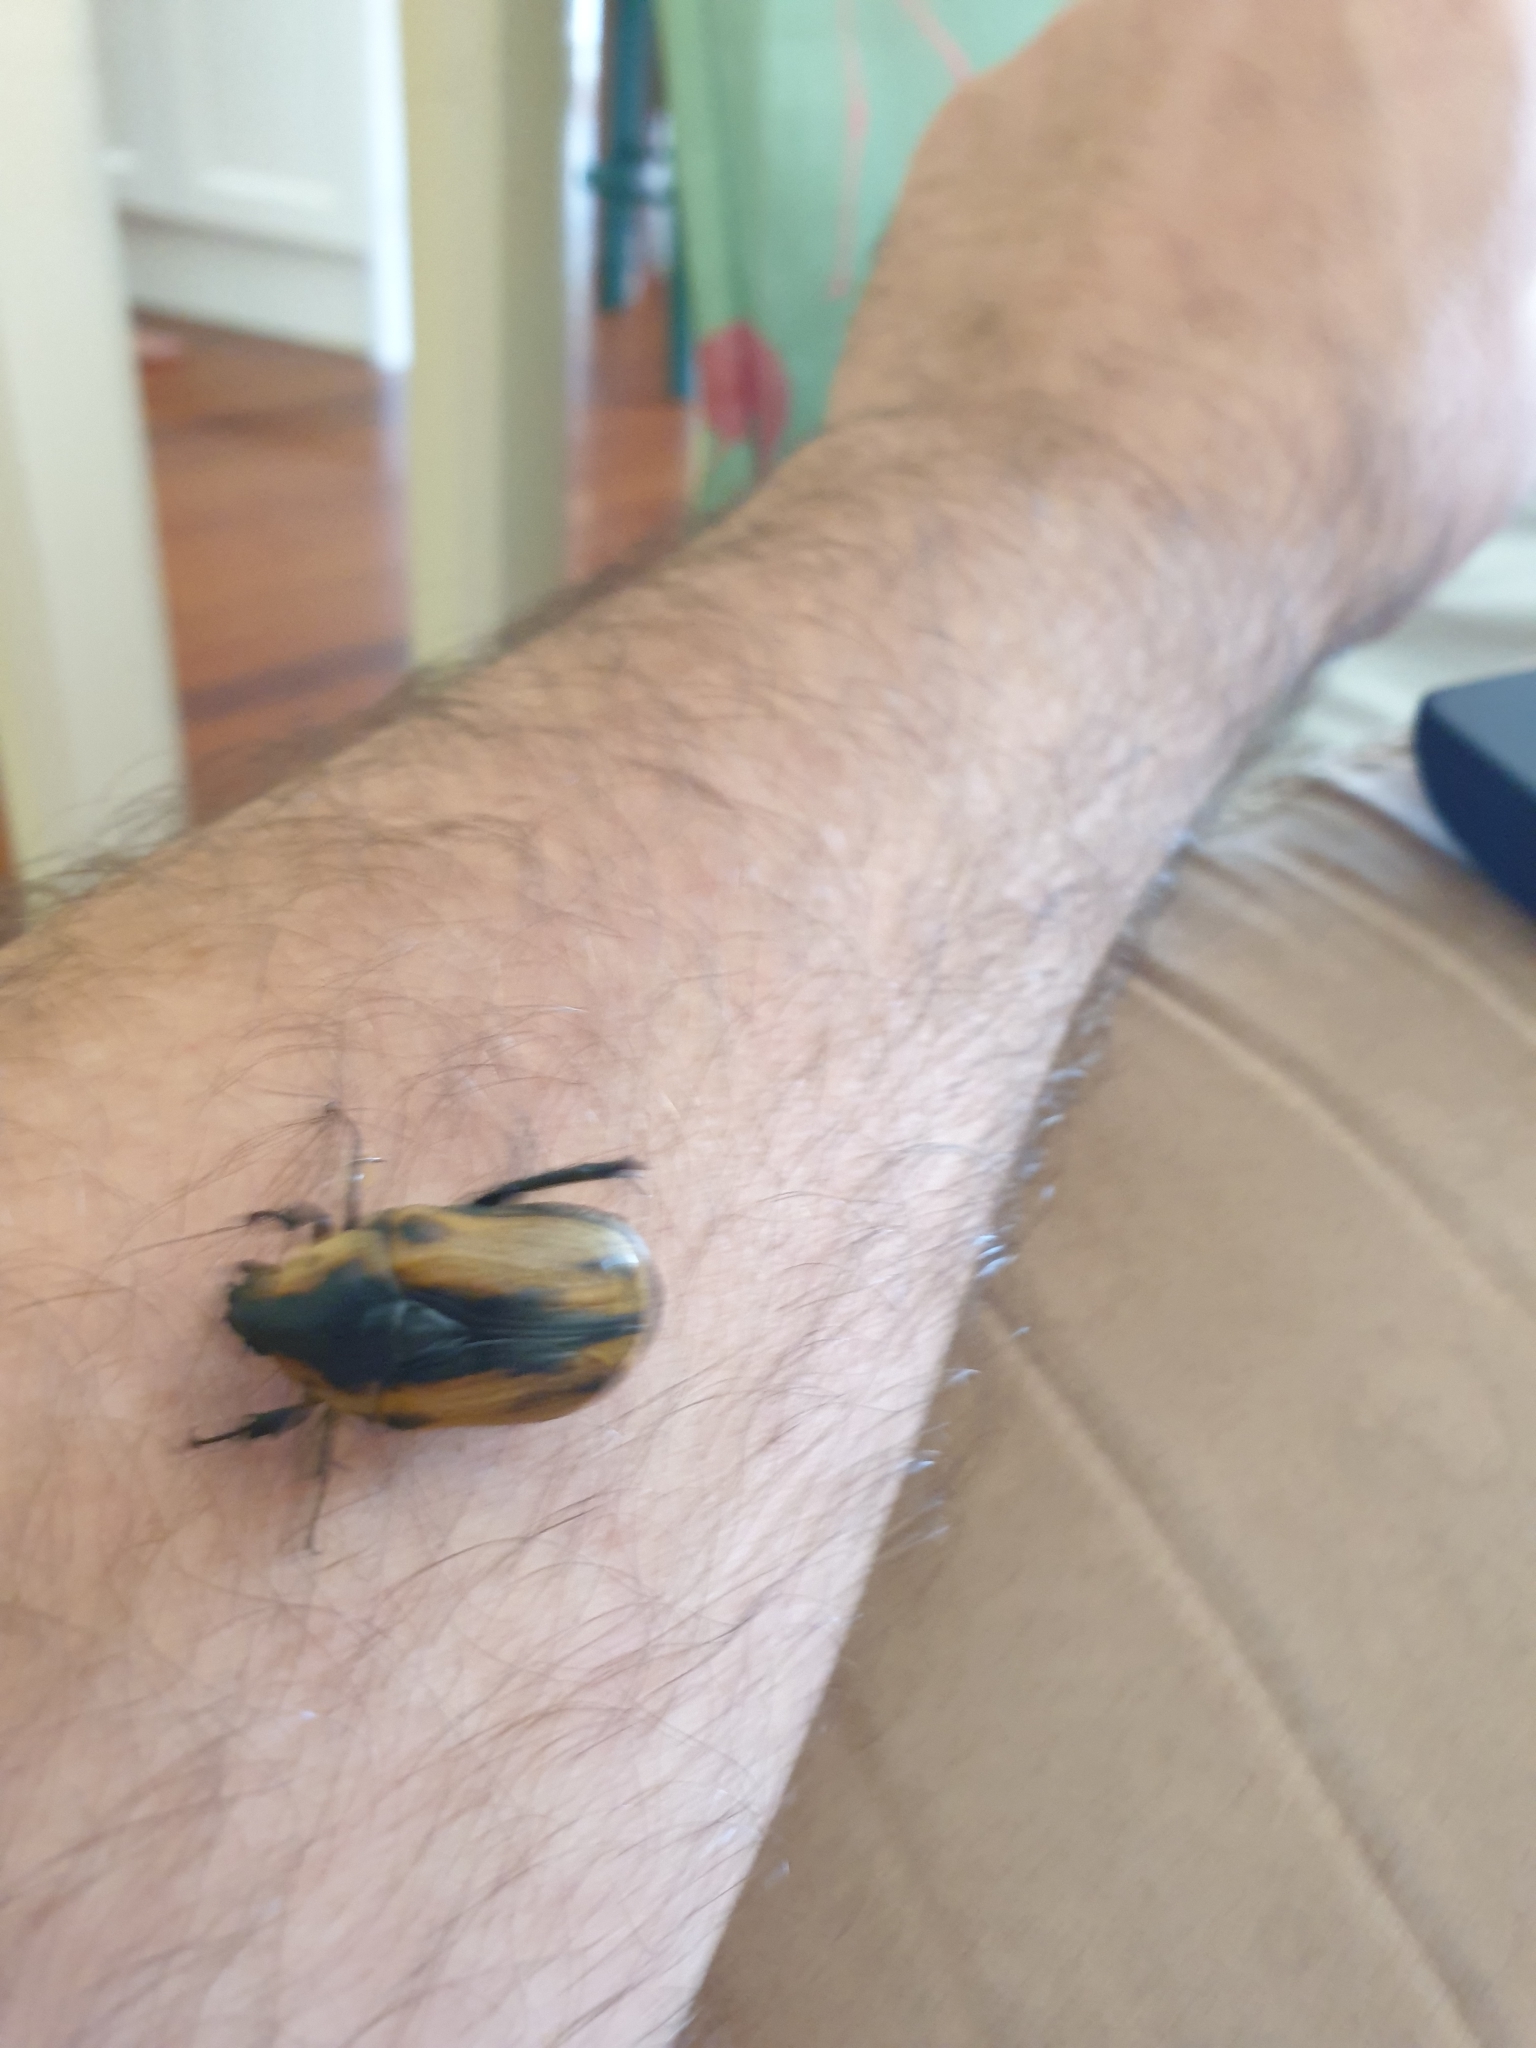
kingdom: Animalia
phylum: Arthropoda
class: Insecta
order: Coleoptera
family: Scarabaeidae
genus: Chondropyga
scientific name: Chondropyga dorsalis
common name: Cowboy beetle
